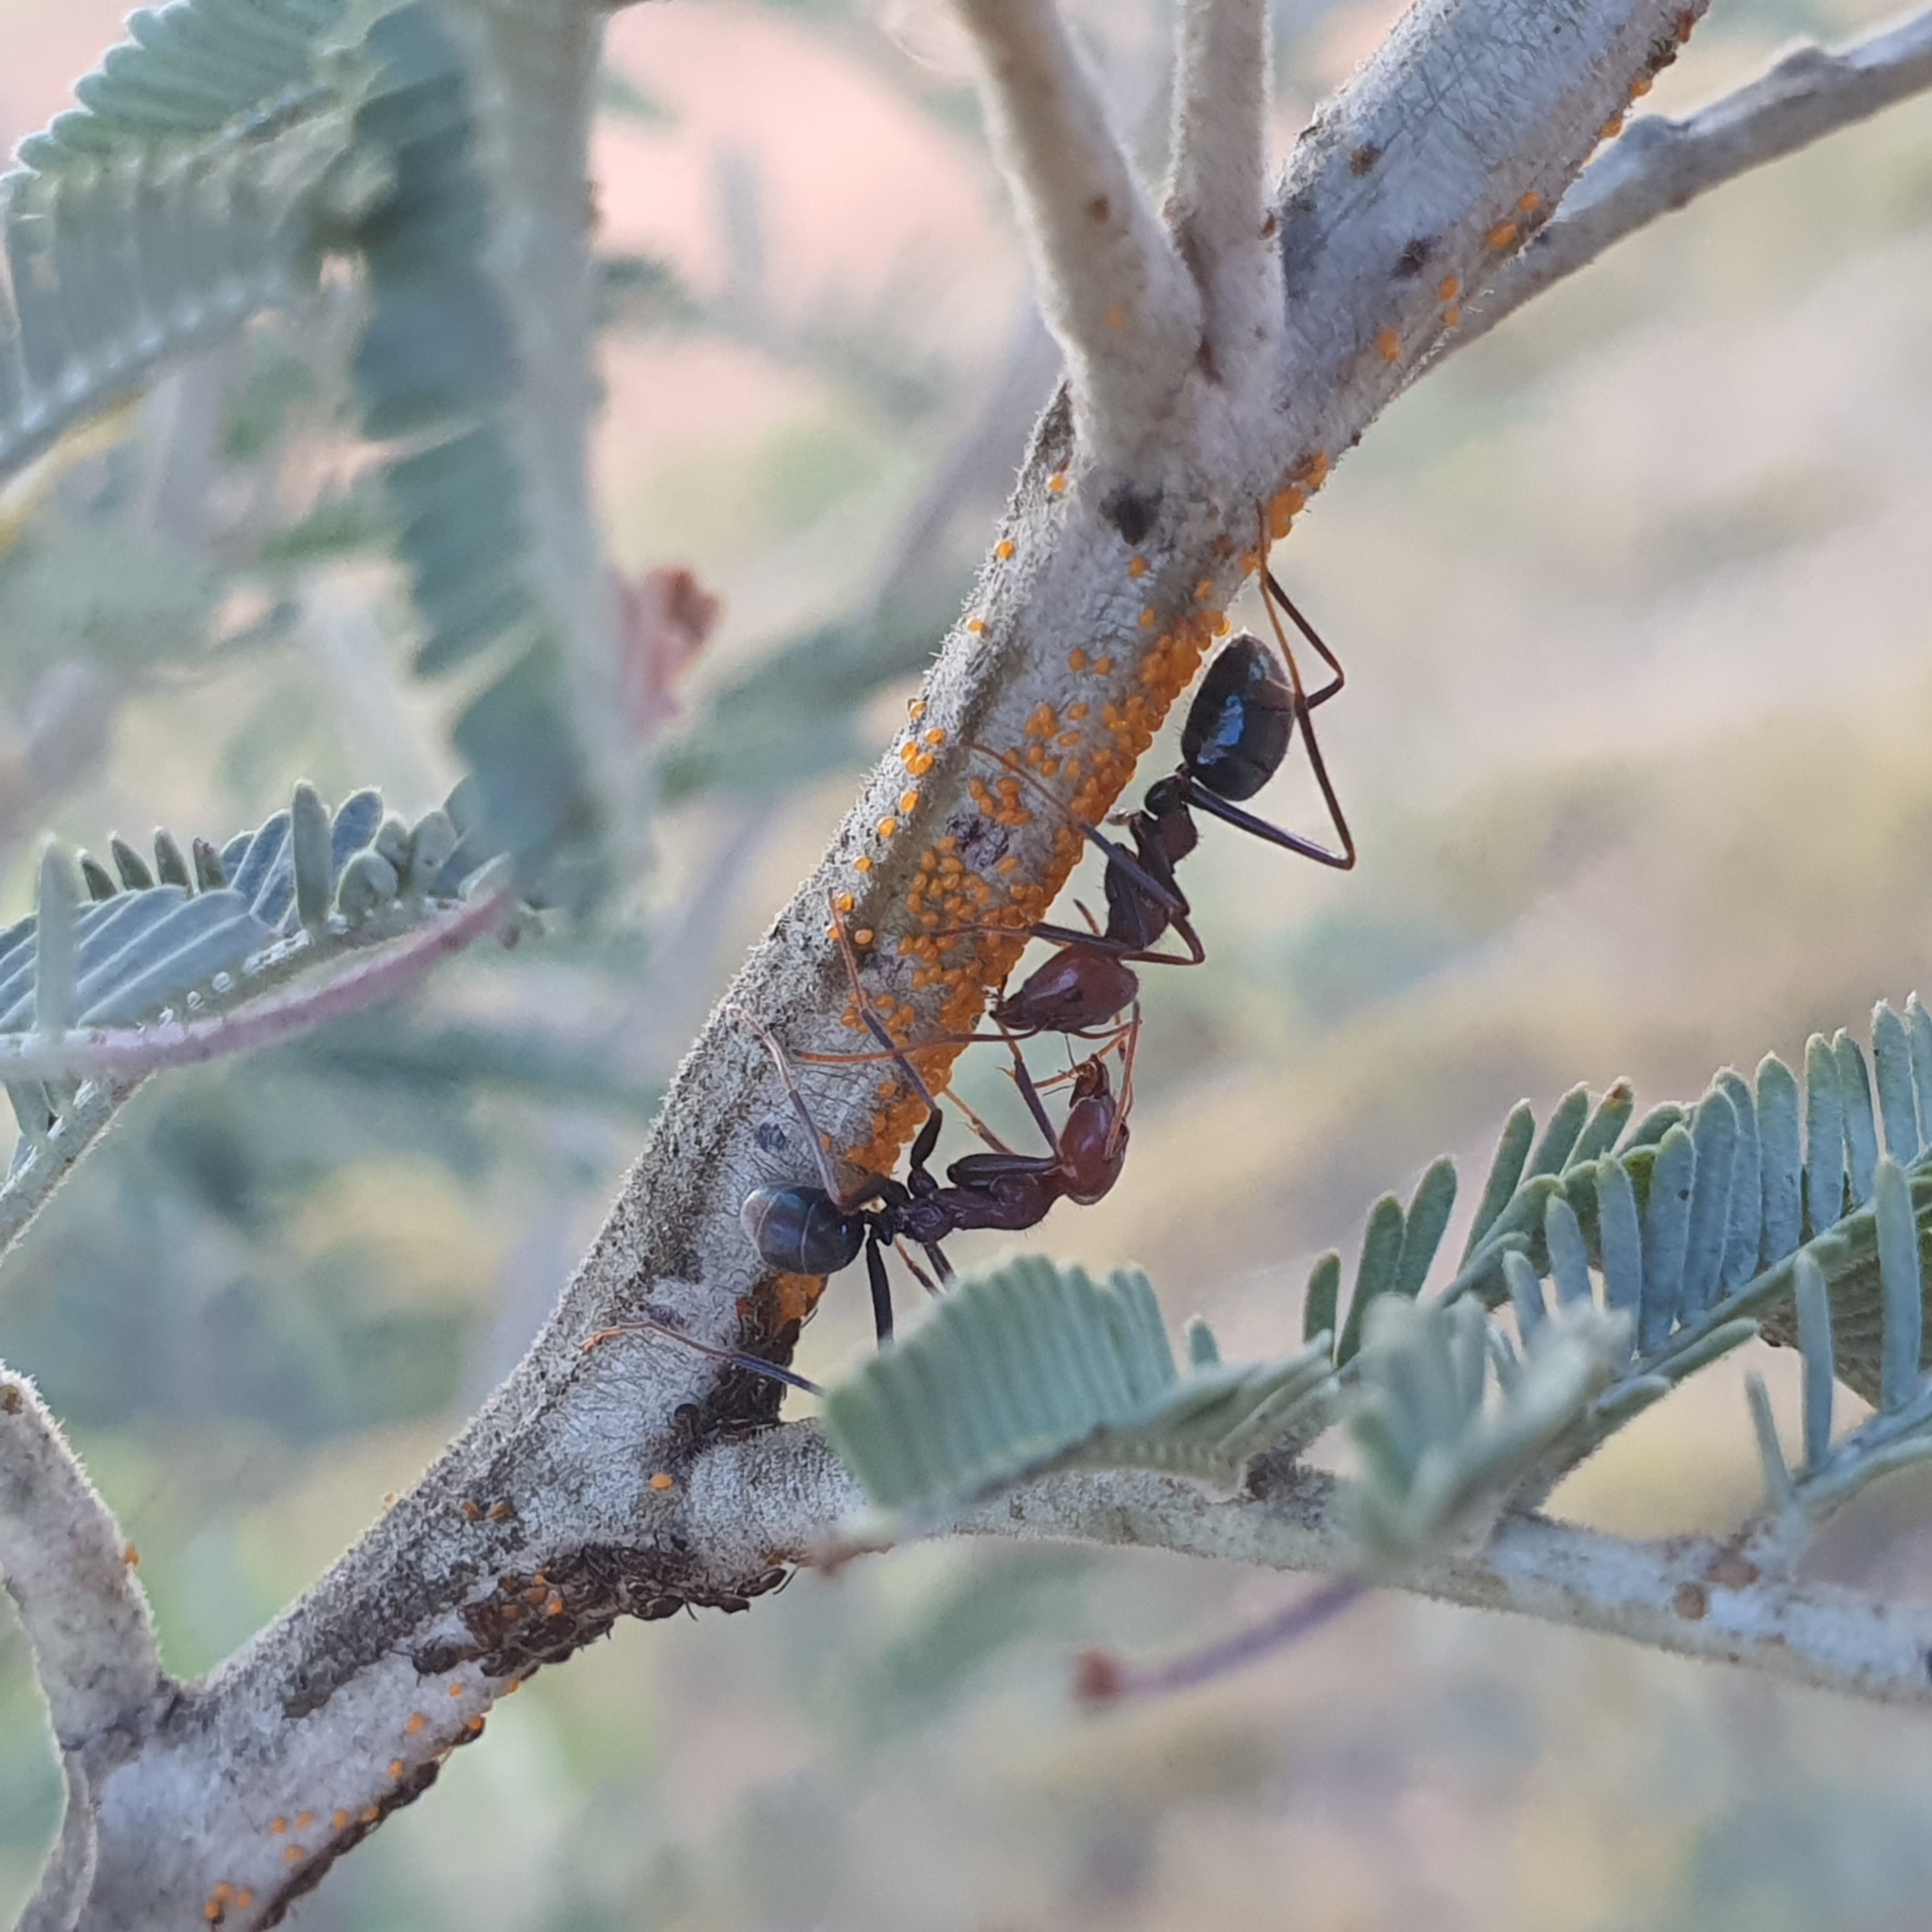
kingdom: Animalia
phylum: Arthropoda
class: Insecta
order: Hymenoptera
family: Formicidae
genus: Iridomyrmex
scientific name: Iridomyrmex purpureus
